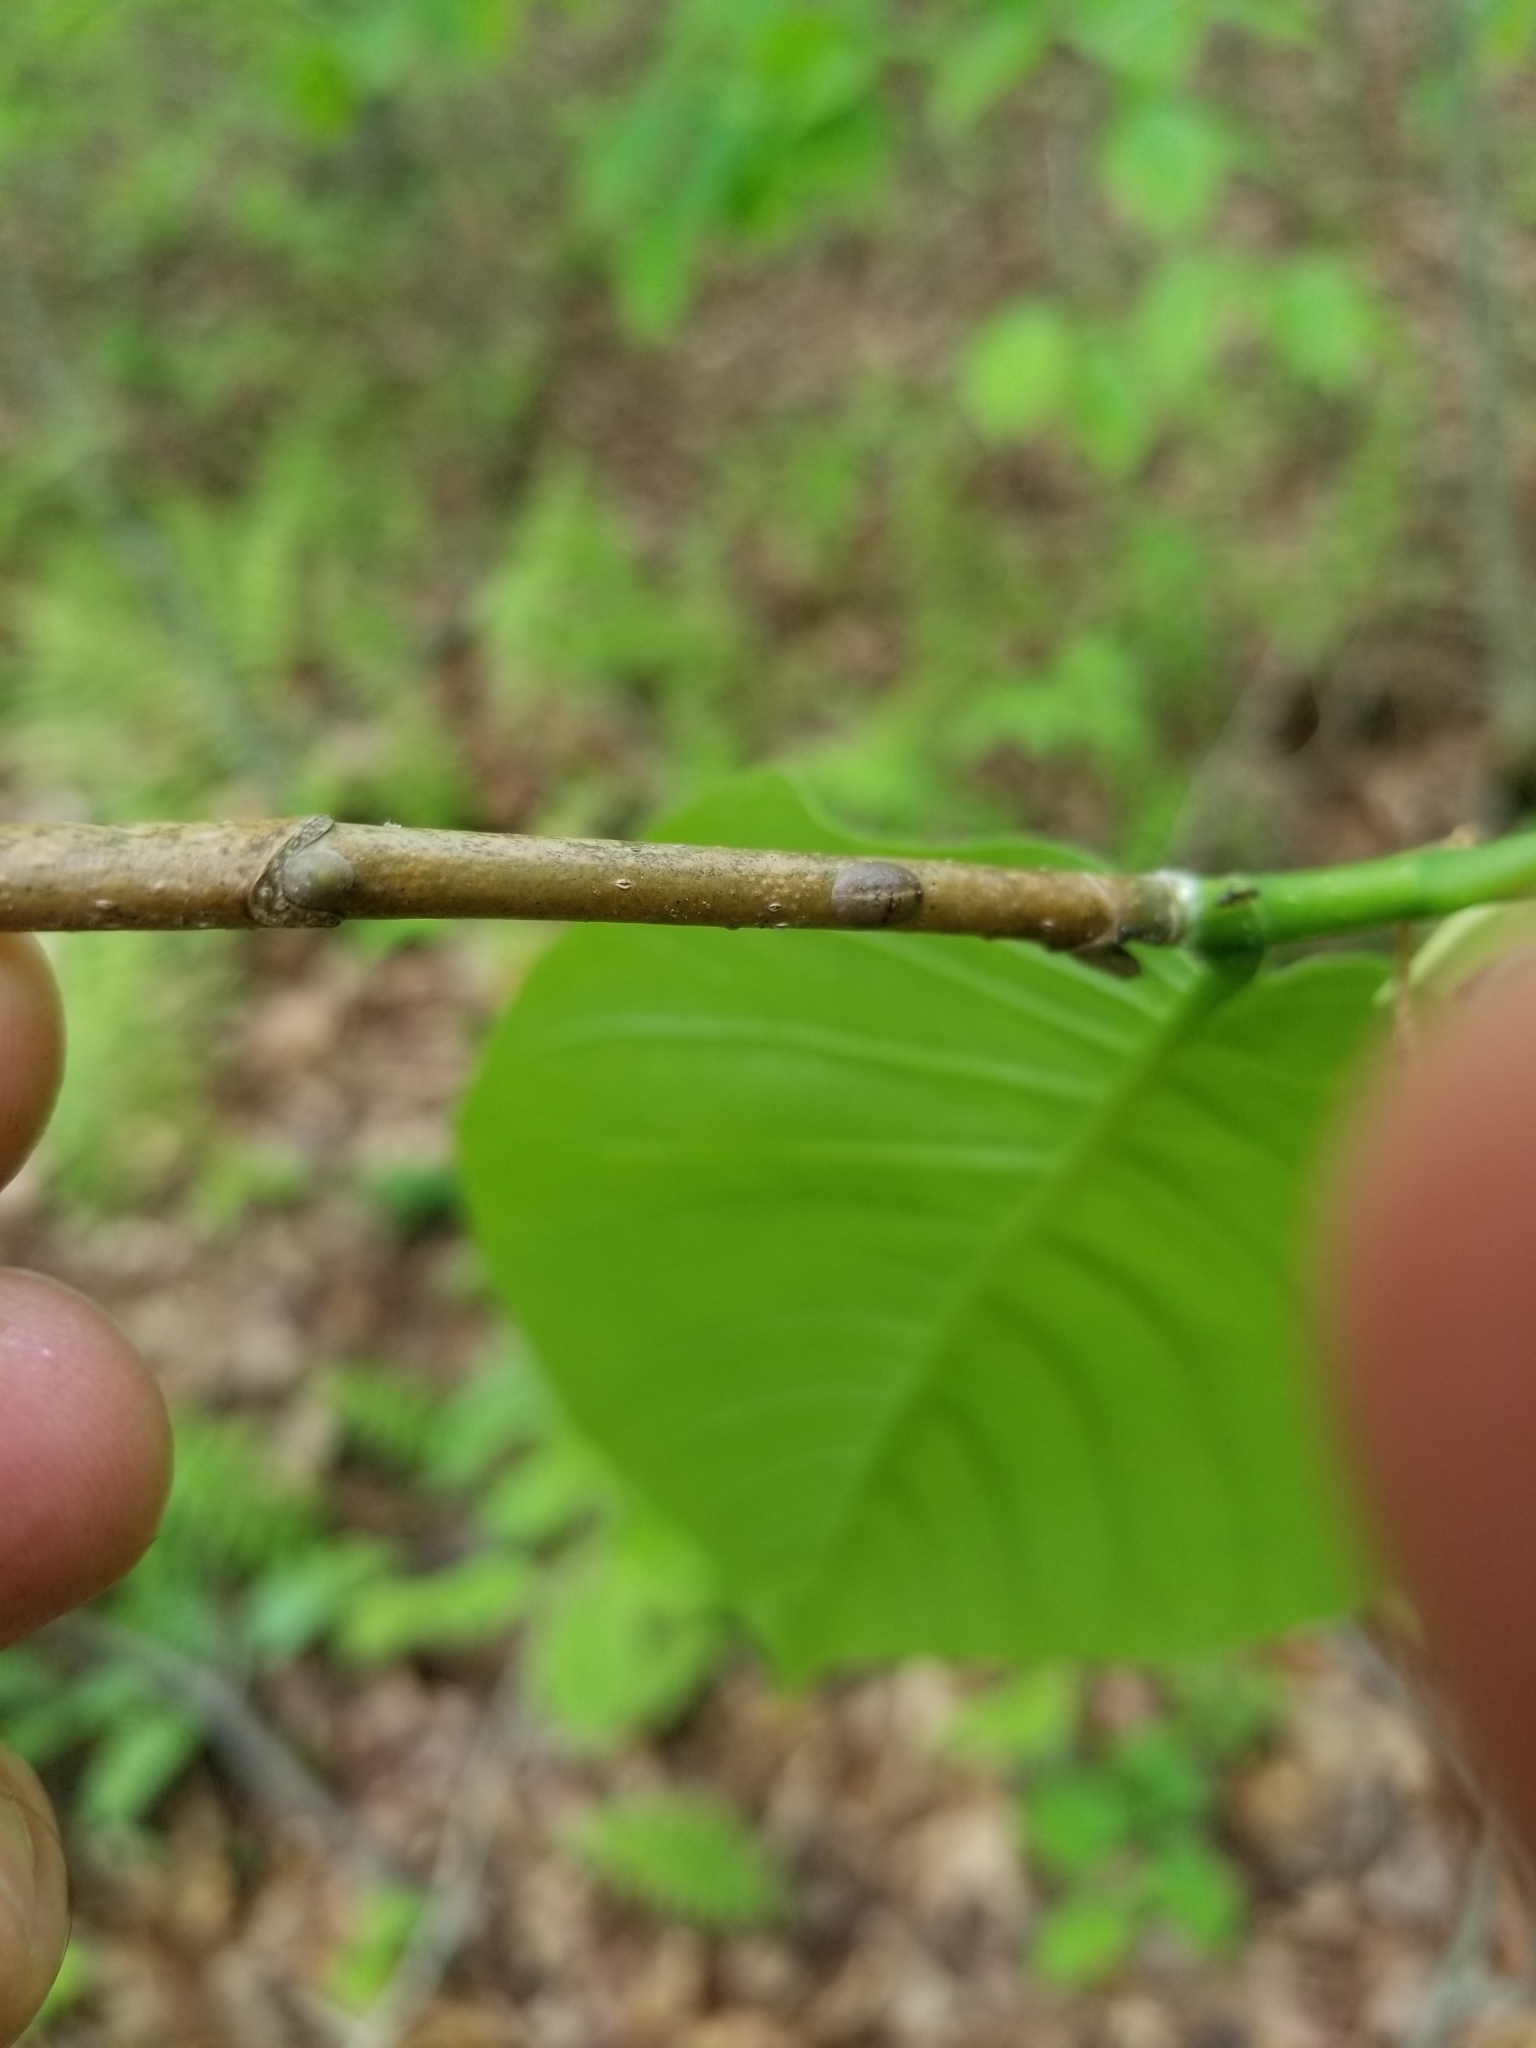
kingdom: Plantae
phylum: Tracheophyta
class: Magnoliopsida
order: Magnoliales
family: Magnoliaceae
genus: Magnolia
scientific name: Magnolia acuminata
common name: Cucumber magnolia
